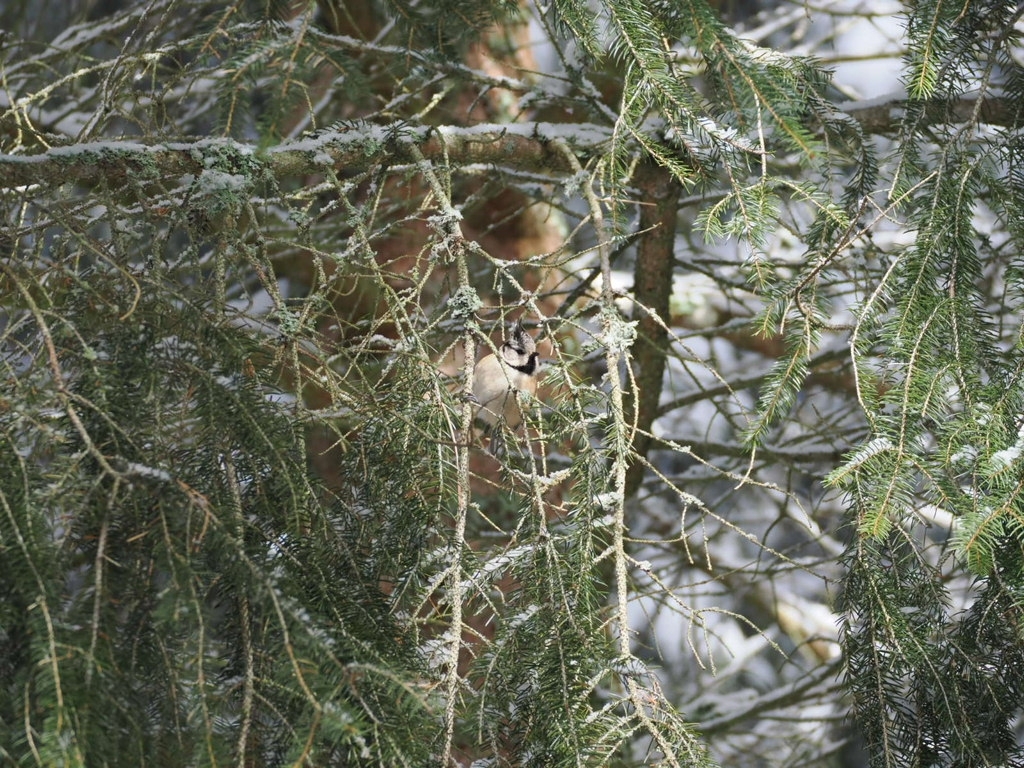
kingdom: Animalia
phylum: Chordata
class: Aves
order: Passeriformes
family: Paridae
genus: Lophophanes
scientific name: Lophophanes cristatus
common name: European crested tit
